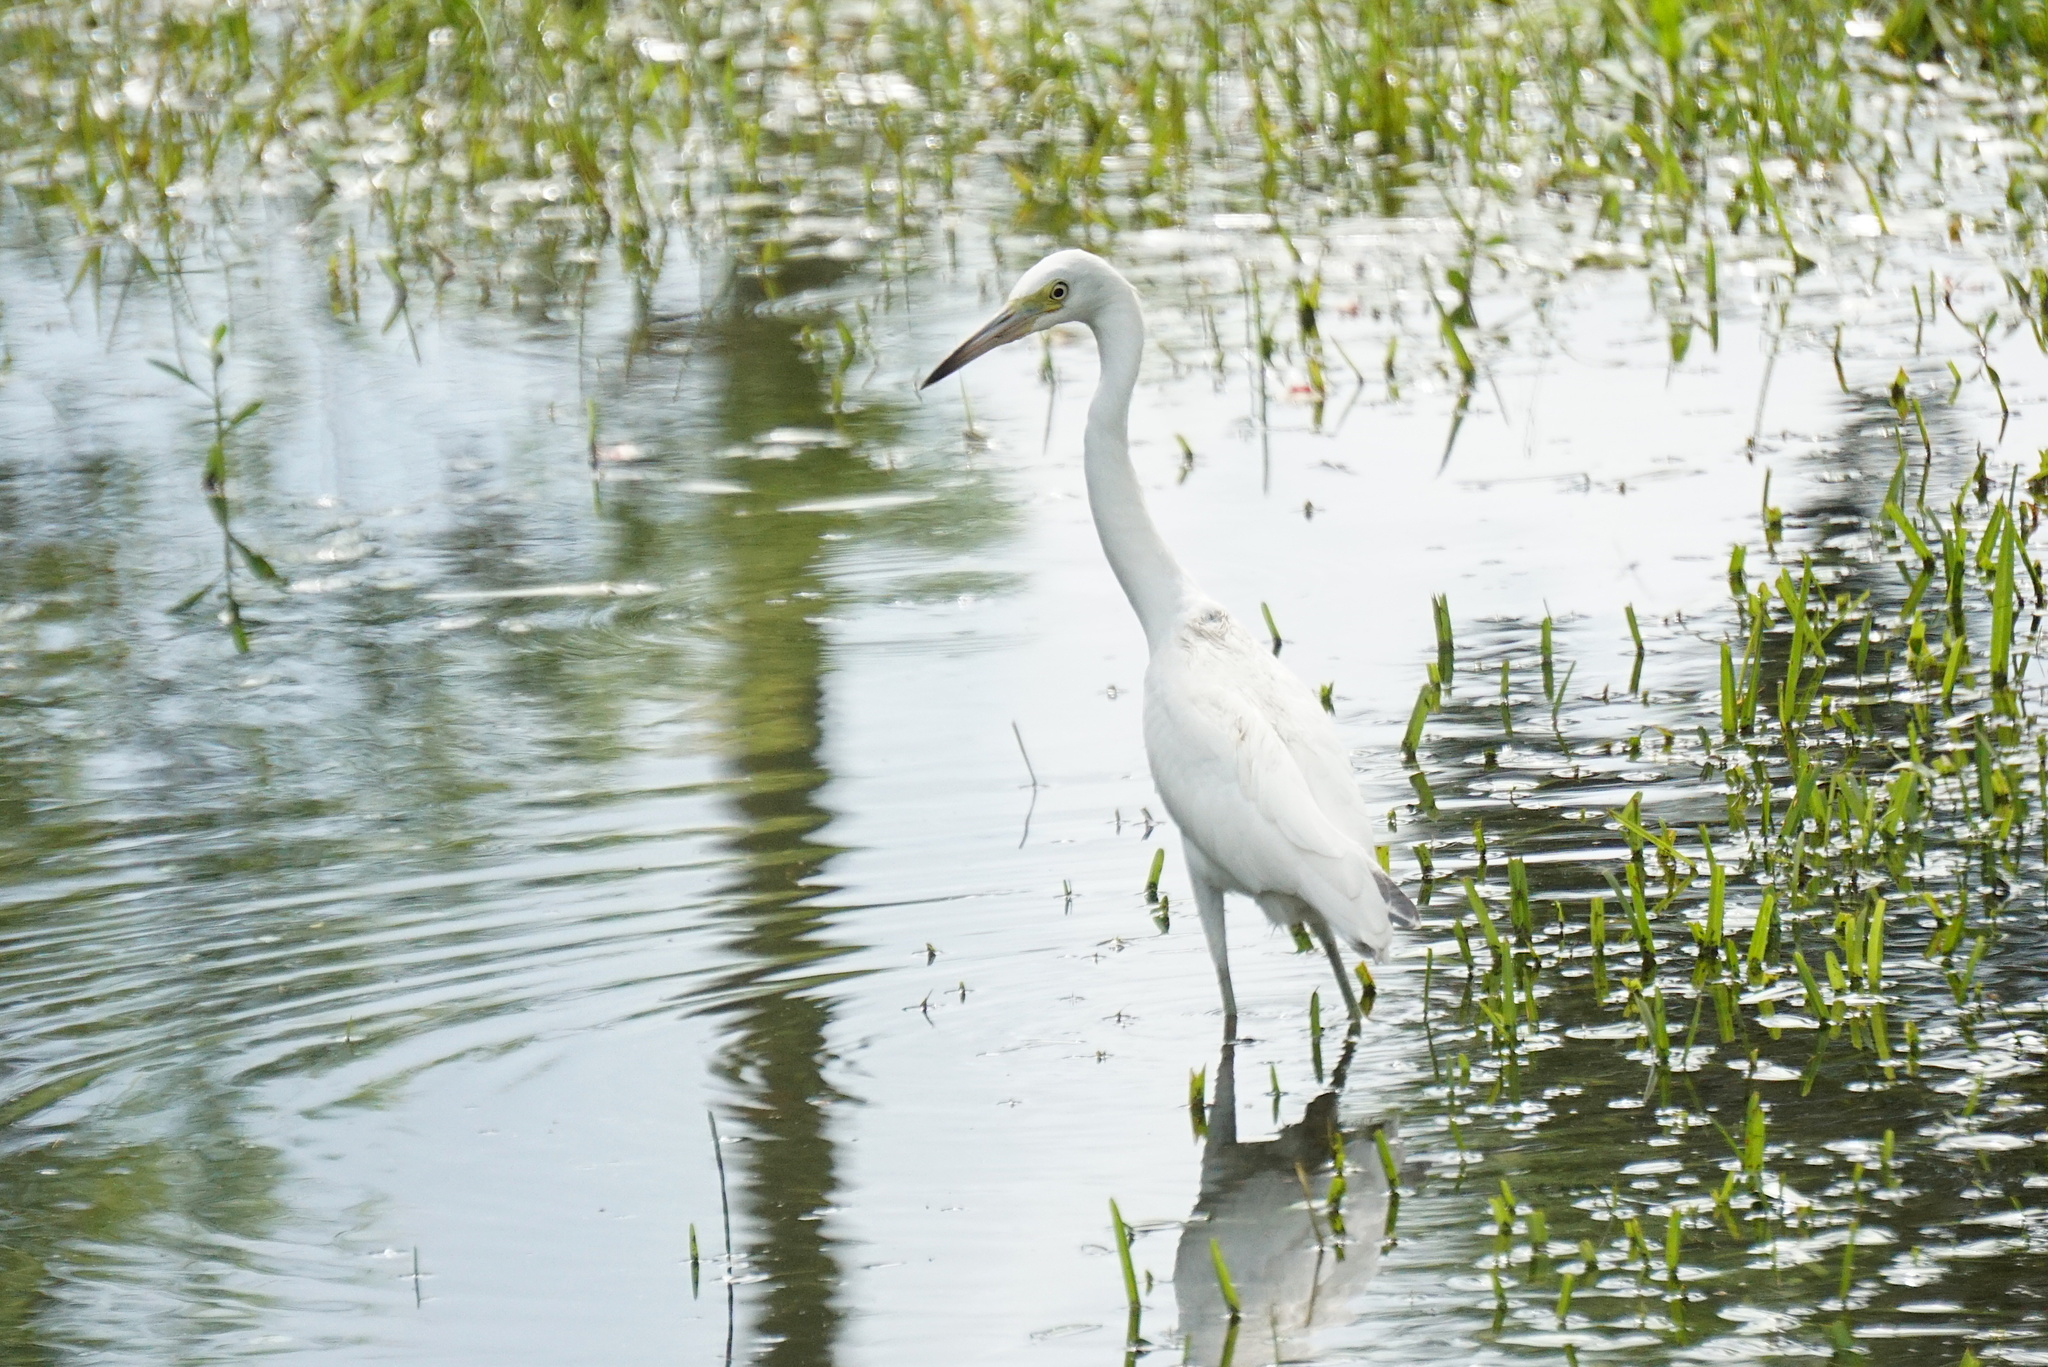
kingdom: Animalia
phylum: Chordata
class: Aves
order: Pelecaniformes
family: Ardeidae
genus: Ardea
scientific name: Ardea alba
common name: Great egret
